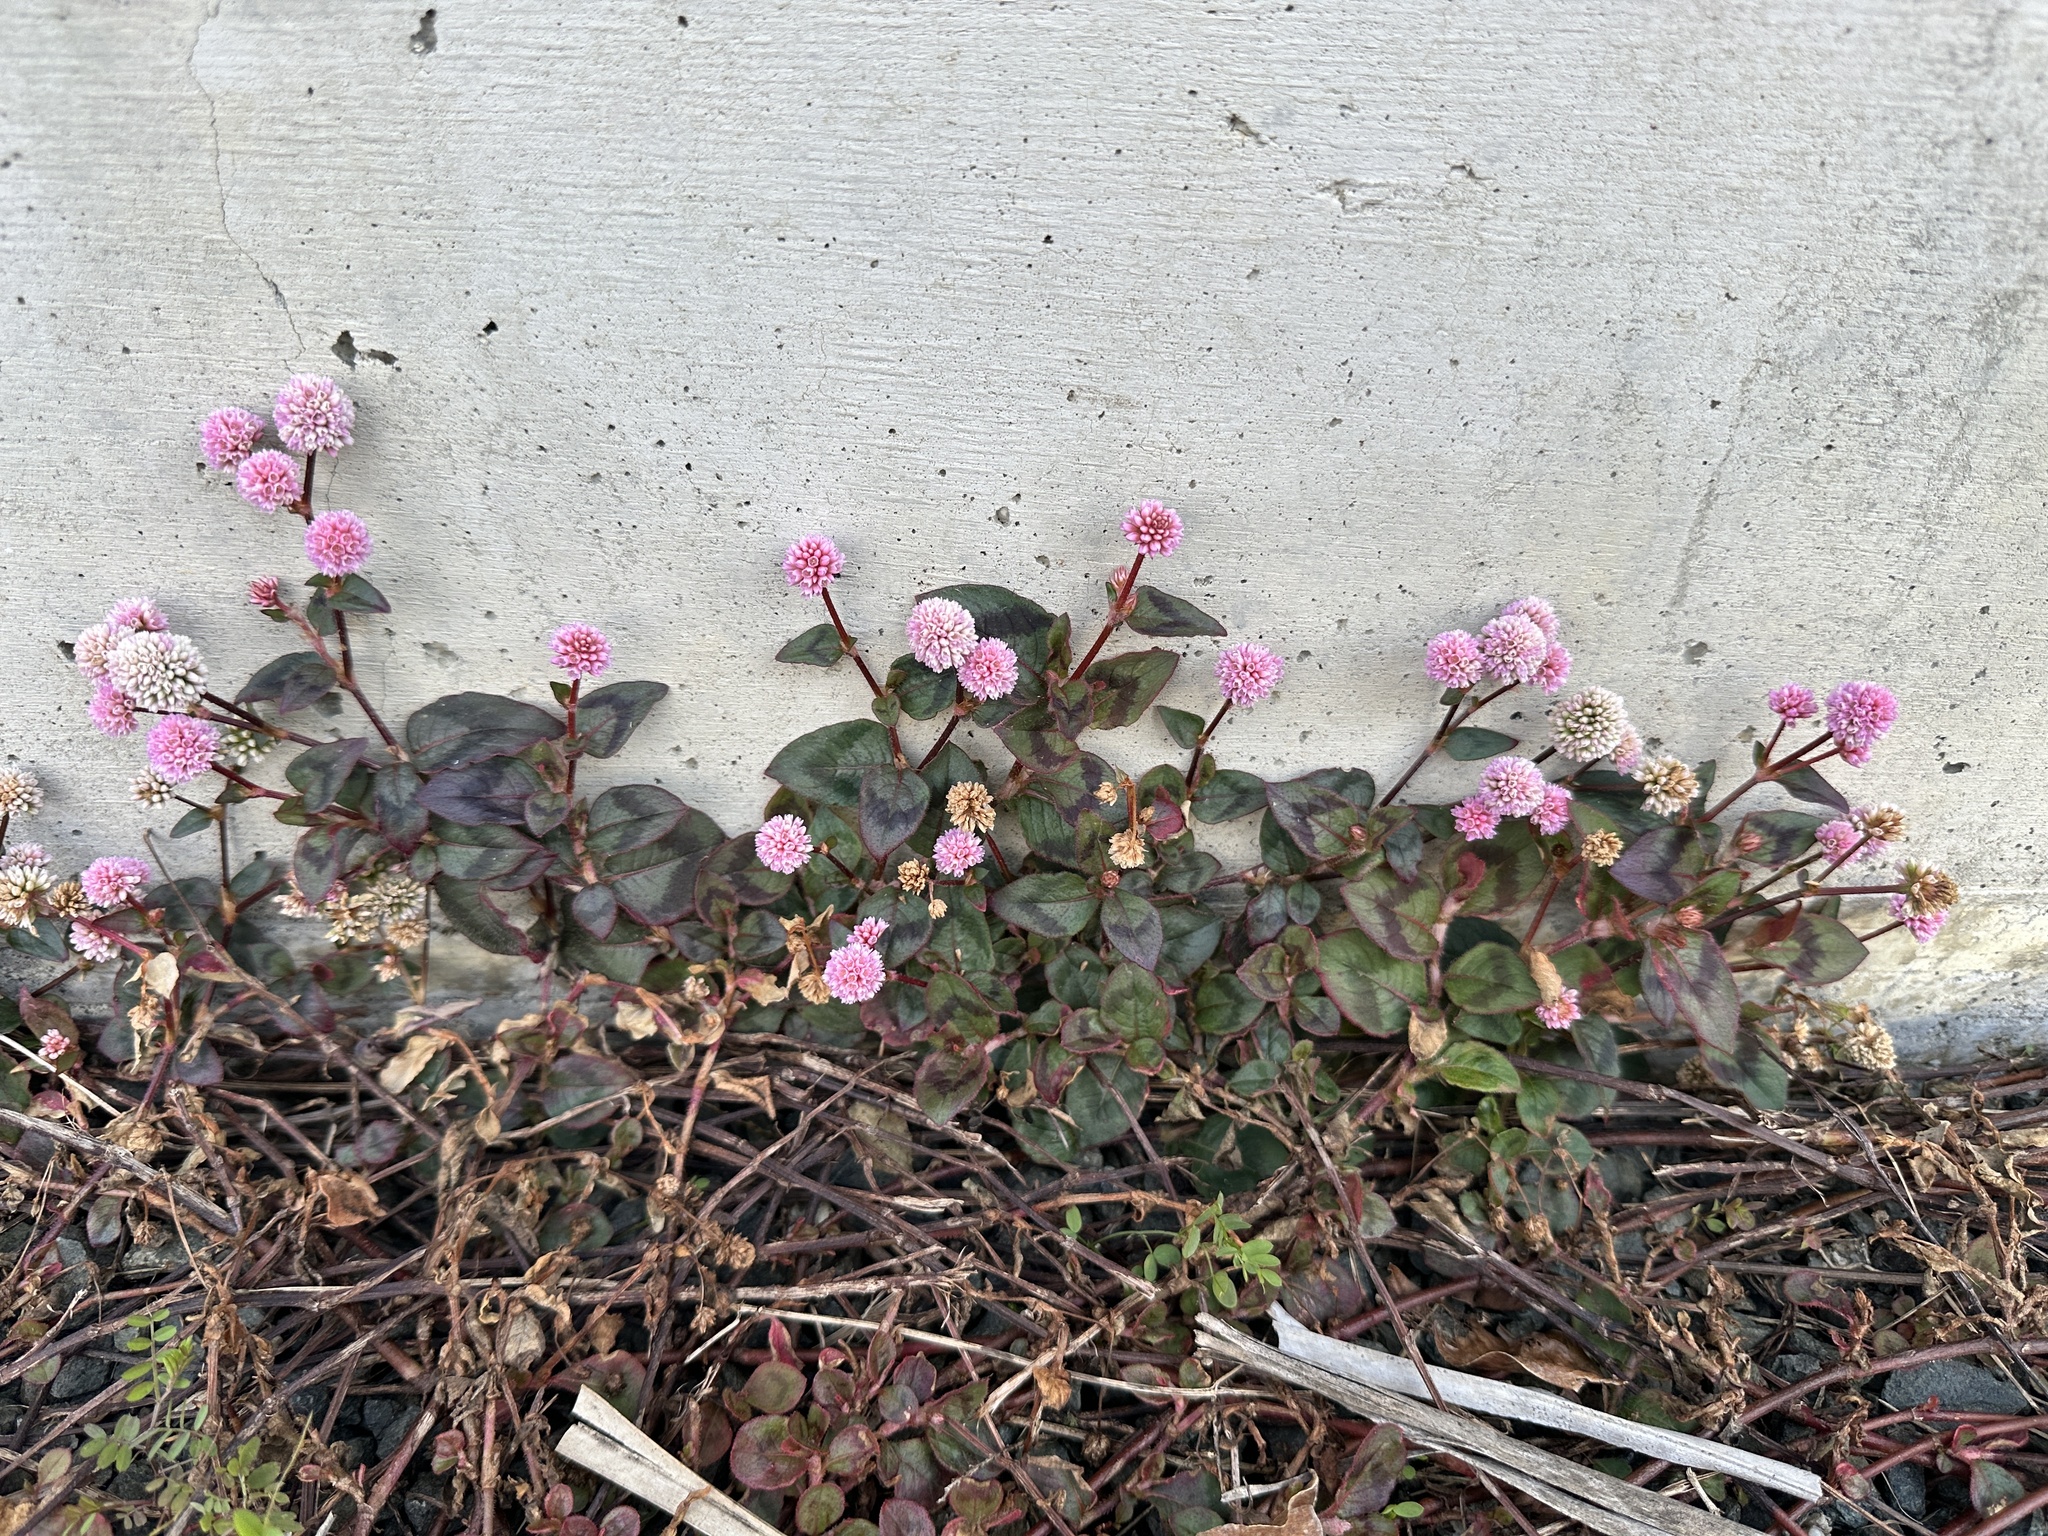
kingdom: Plantae
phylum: Tracheophyta
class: Magnoliopsida
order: Caryophyllales
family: Polygonaceae
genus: Persicaria
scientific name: Persicaria capitata
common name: Pinkhead smartweed
